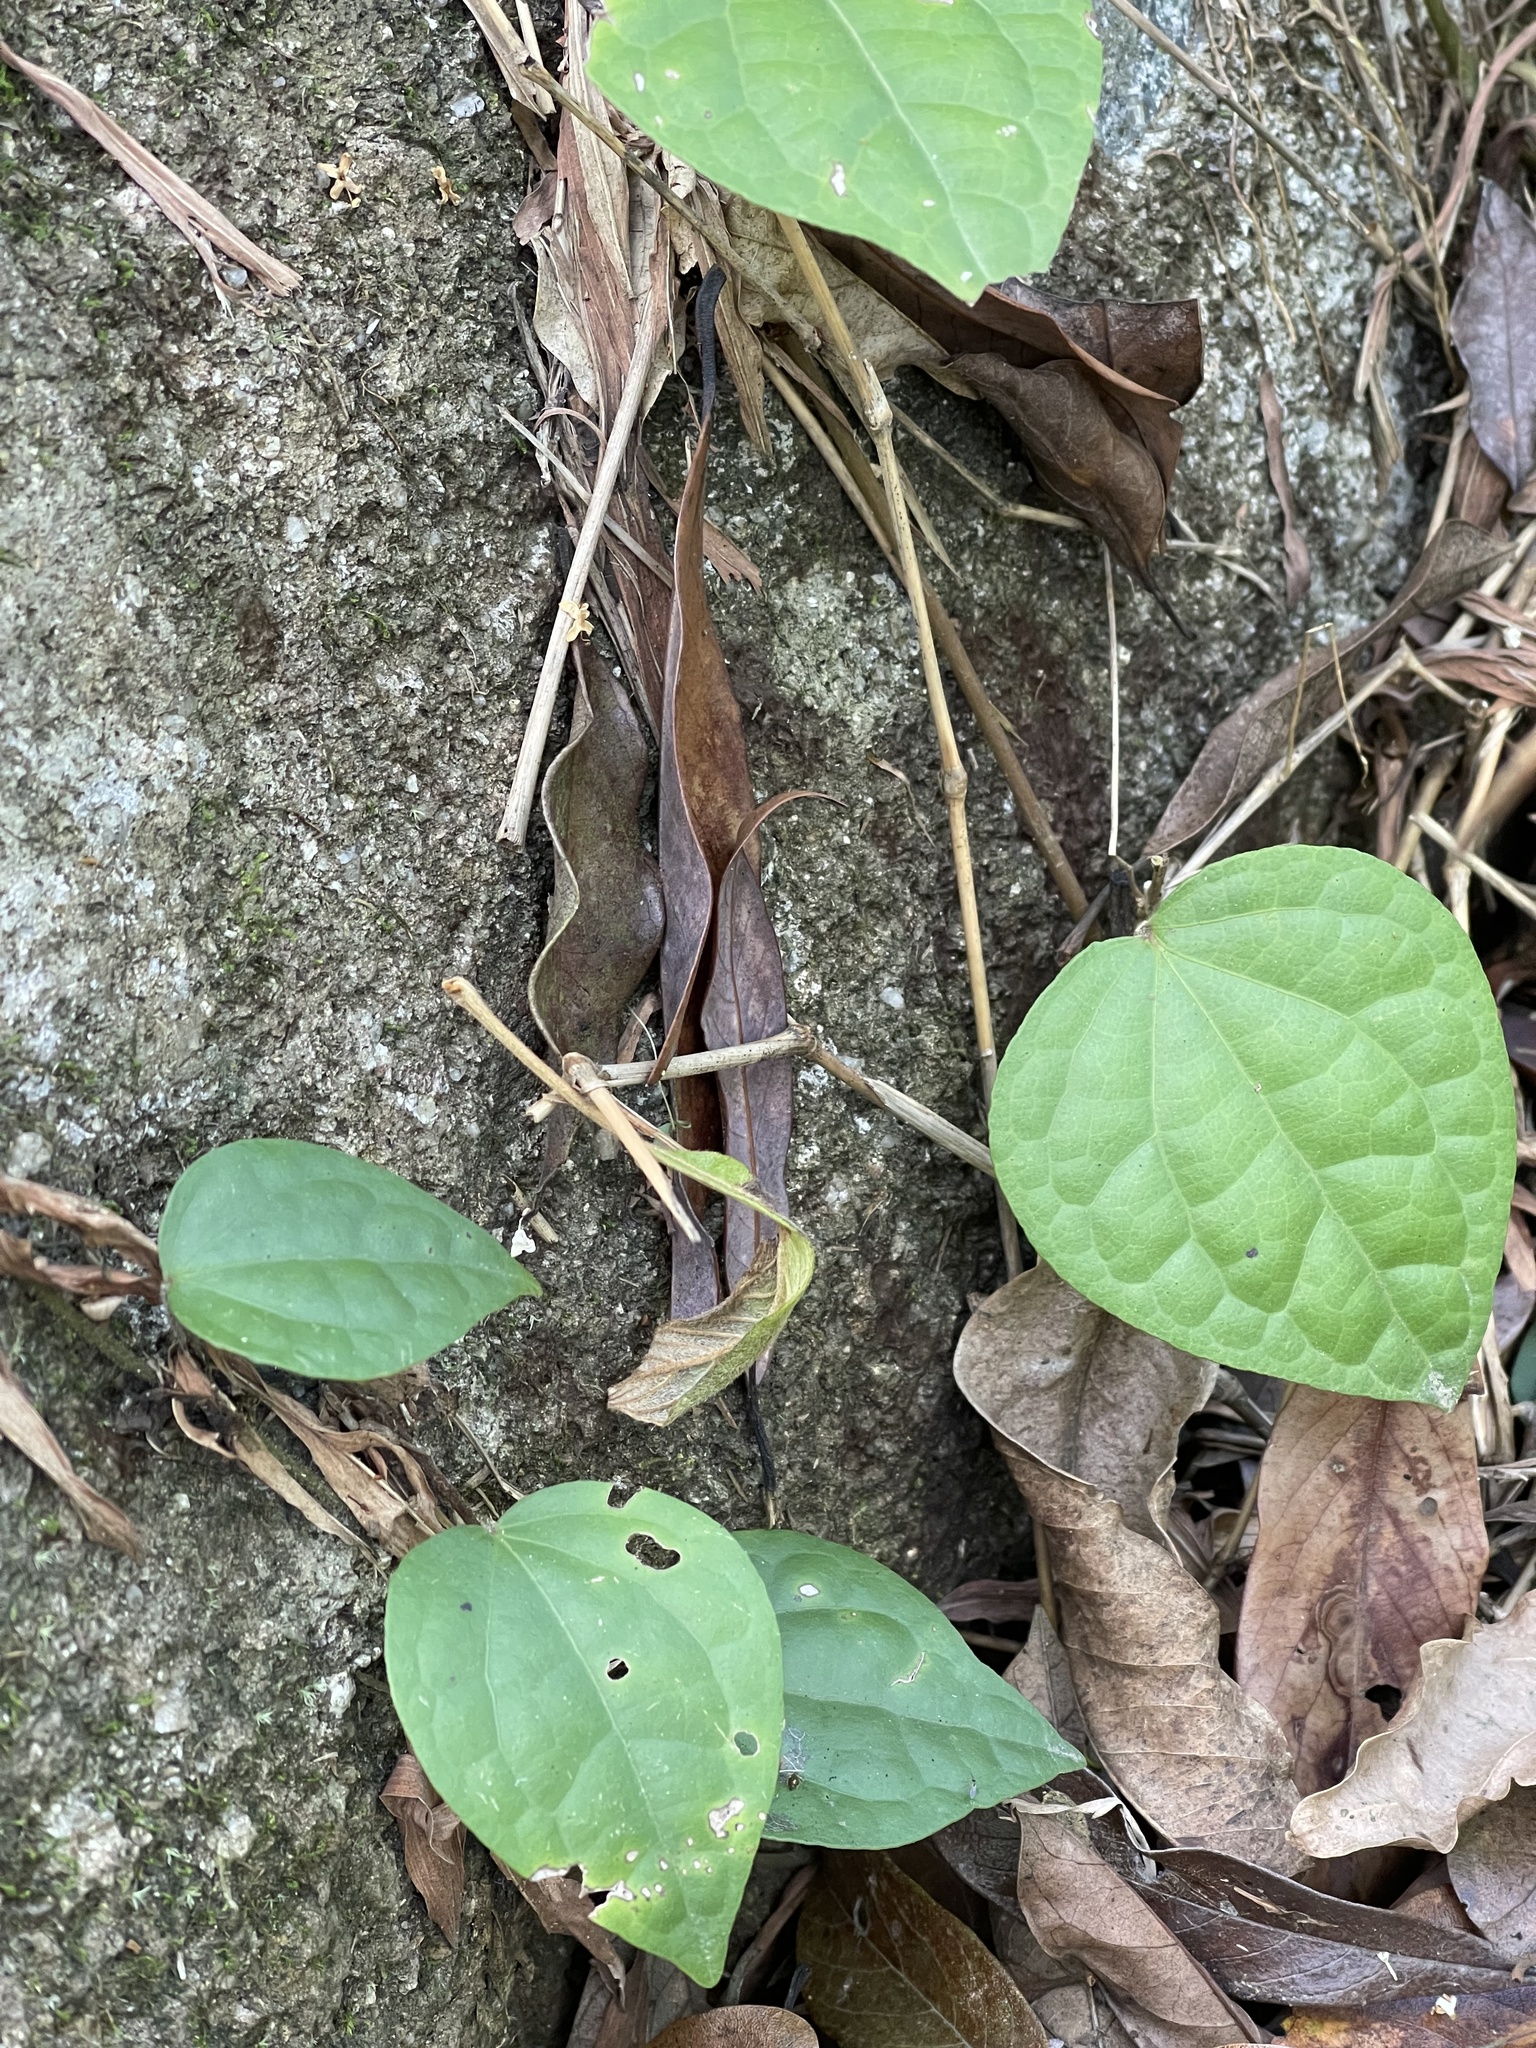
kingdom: Plantae
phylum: Tracheophyta
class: Magnoliopsida
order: Piperales
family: Piperaceae
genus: Piper
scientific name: Piper cathayanum
